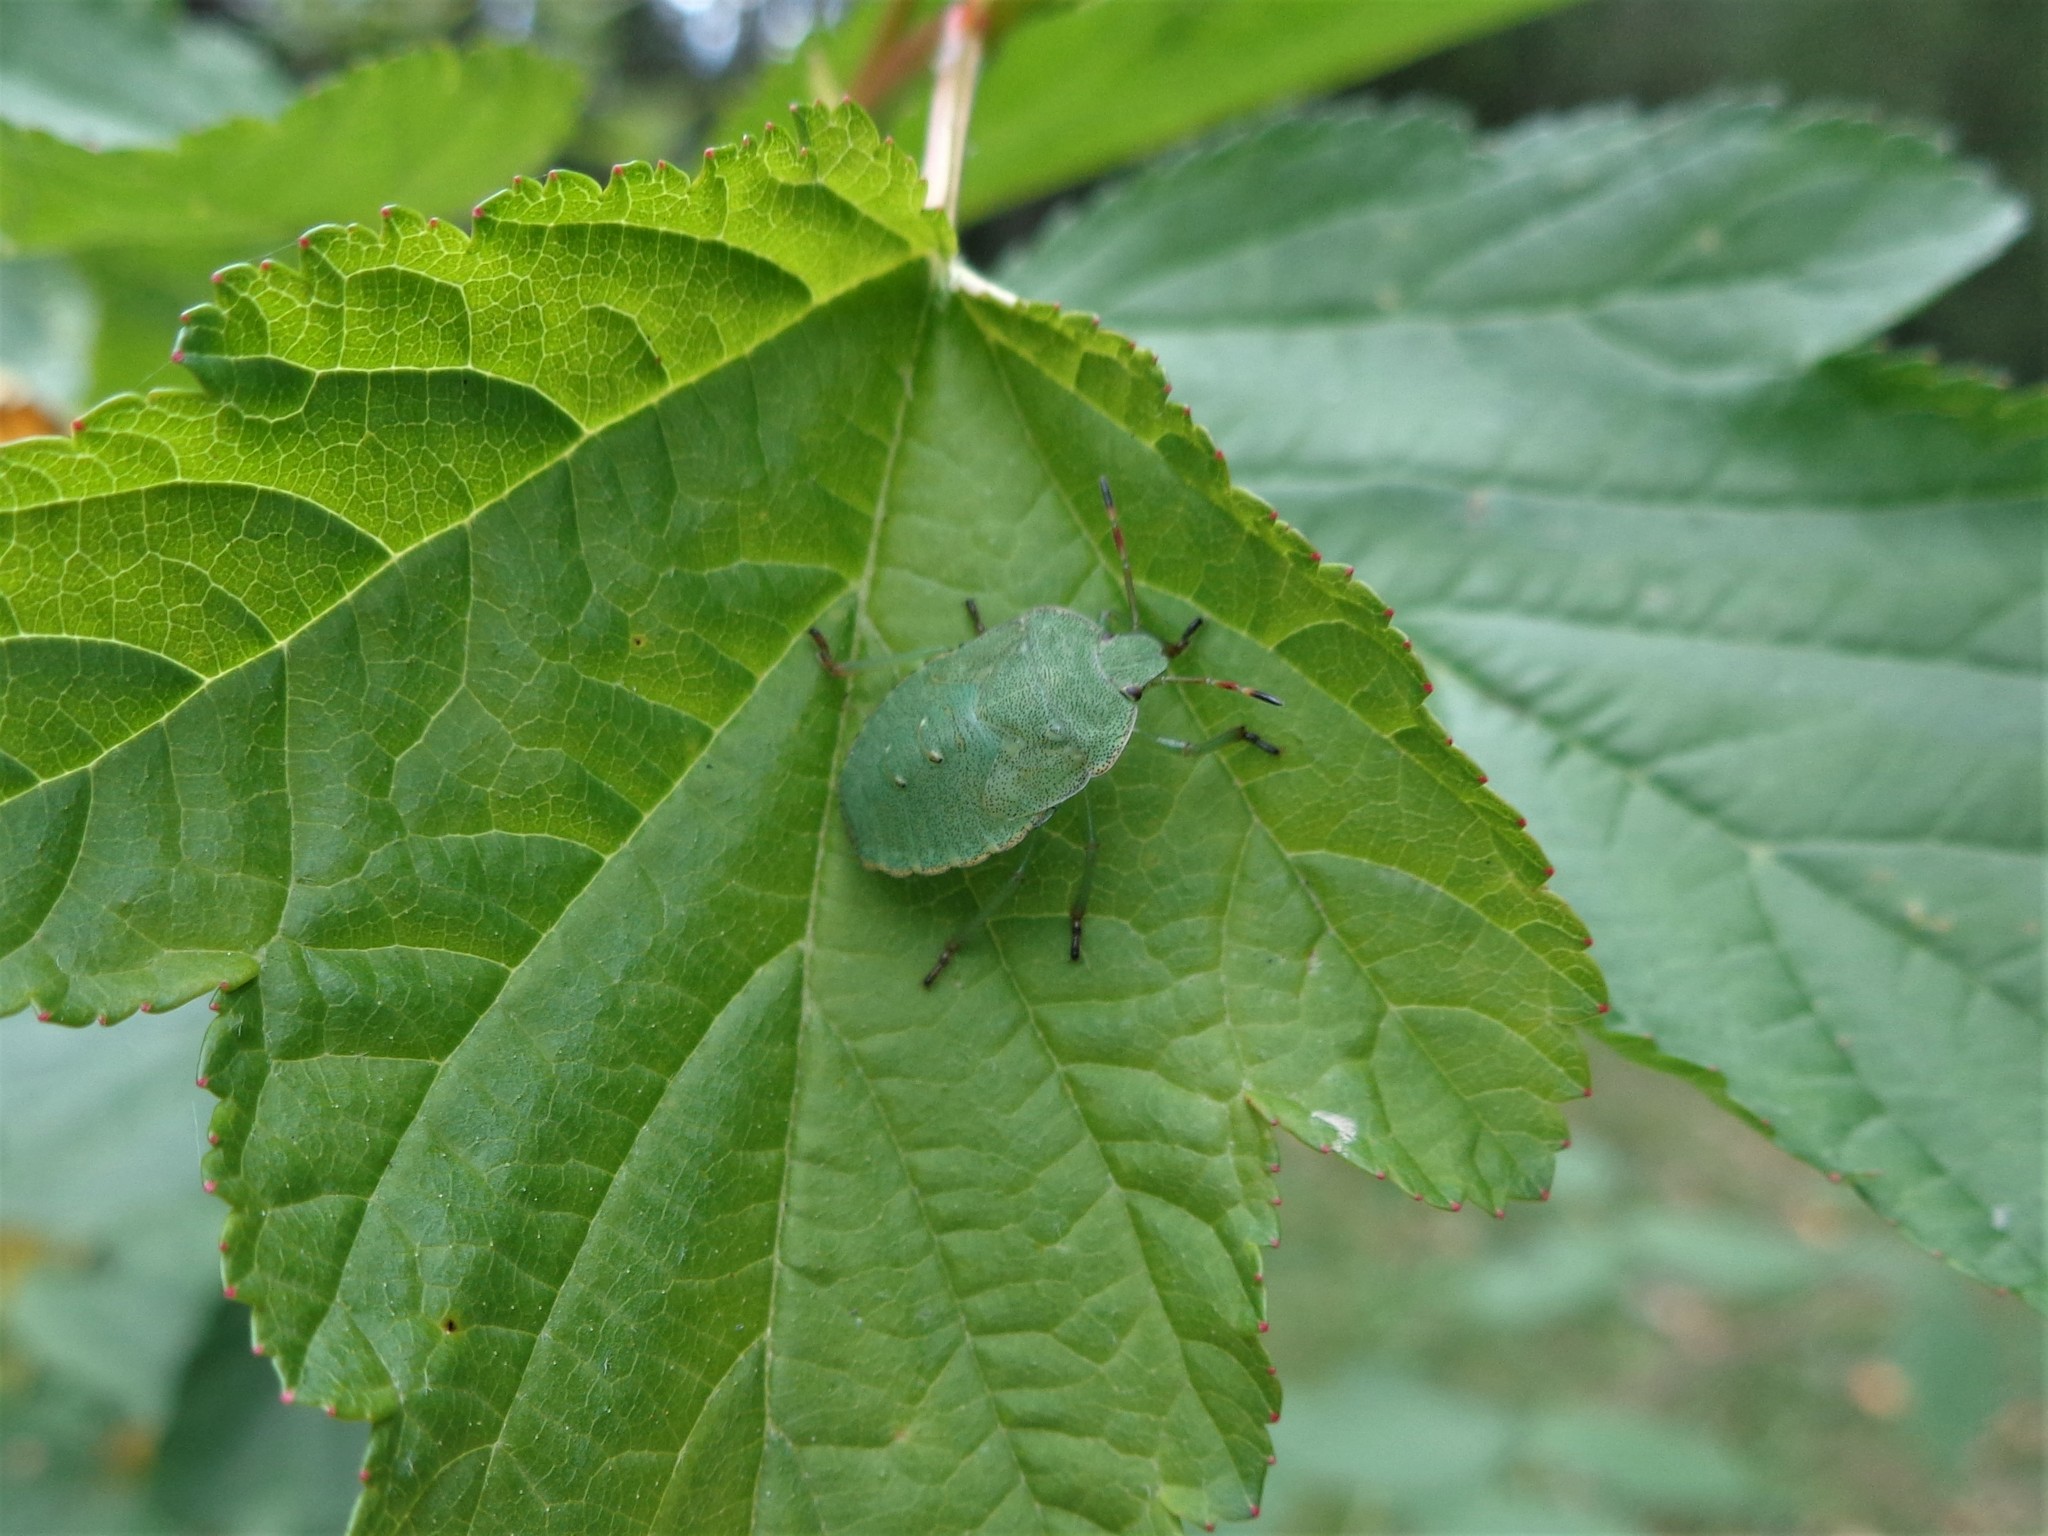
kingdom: Animalia
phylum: Arthropoda
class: Insecta
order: Hemiptera
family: Pentatomidae
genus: Palomena
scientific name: Palomena prasina
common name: Green shieldbug
